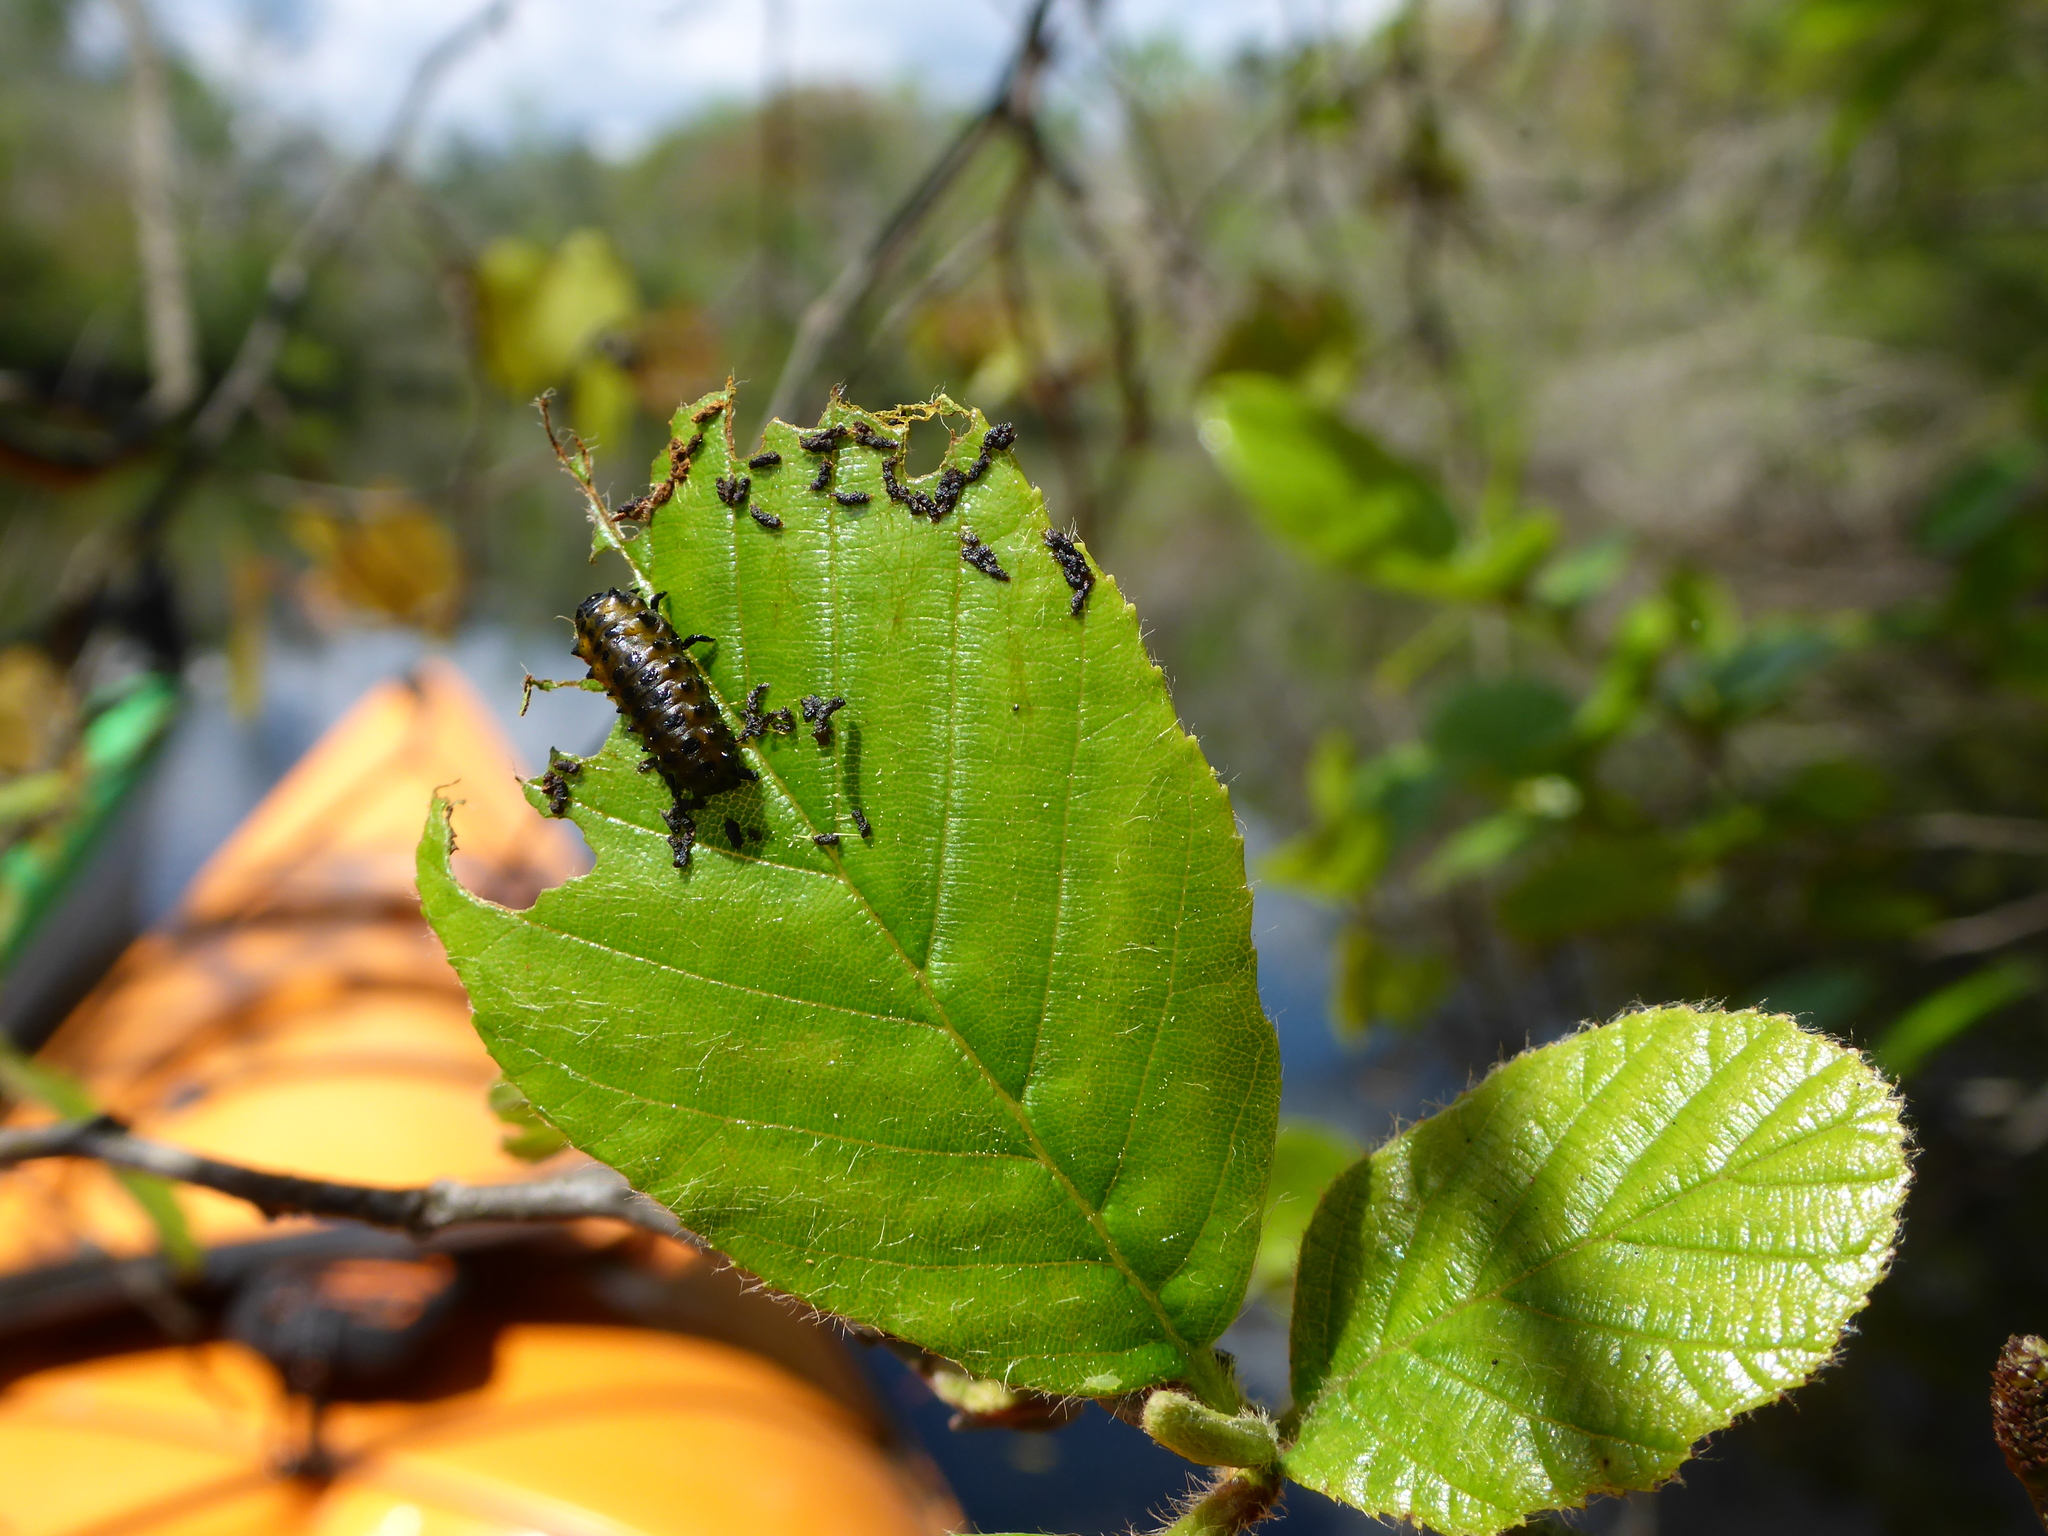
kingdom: Animalia
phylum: Arthropoda
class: Insecta
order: Coleoptera
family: Chrysomelidae
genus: Chrysomela
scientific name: Chrysomela interrupta
